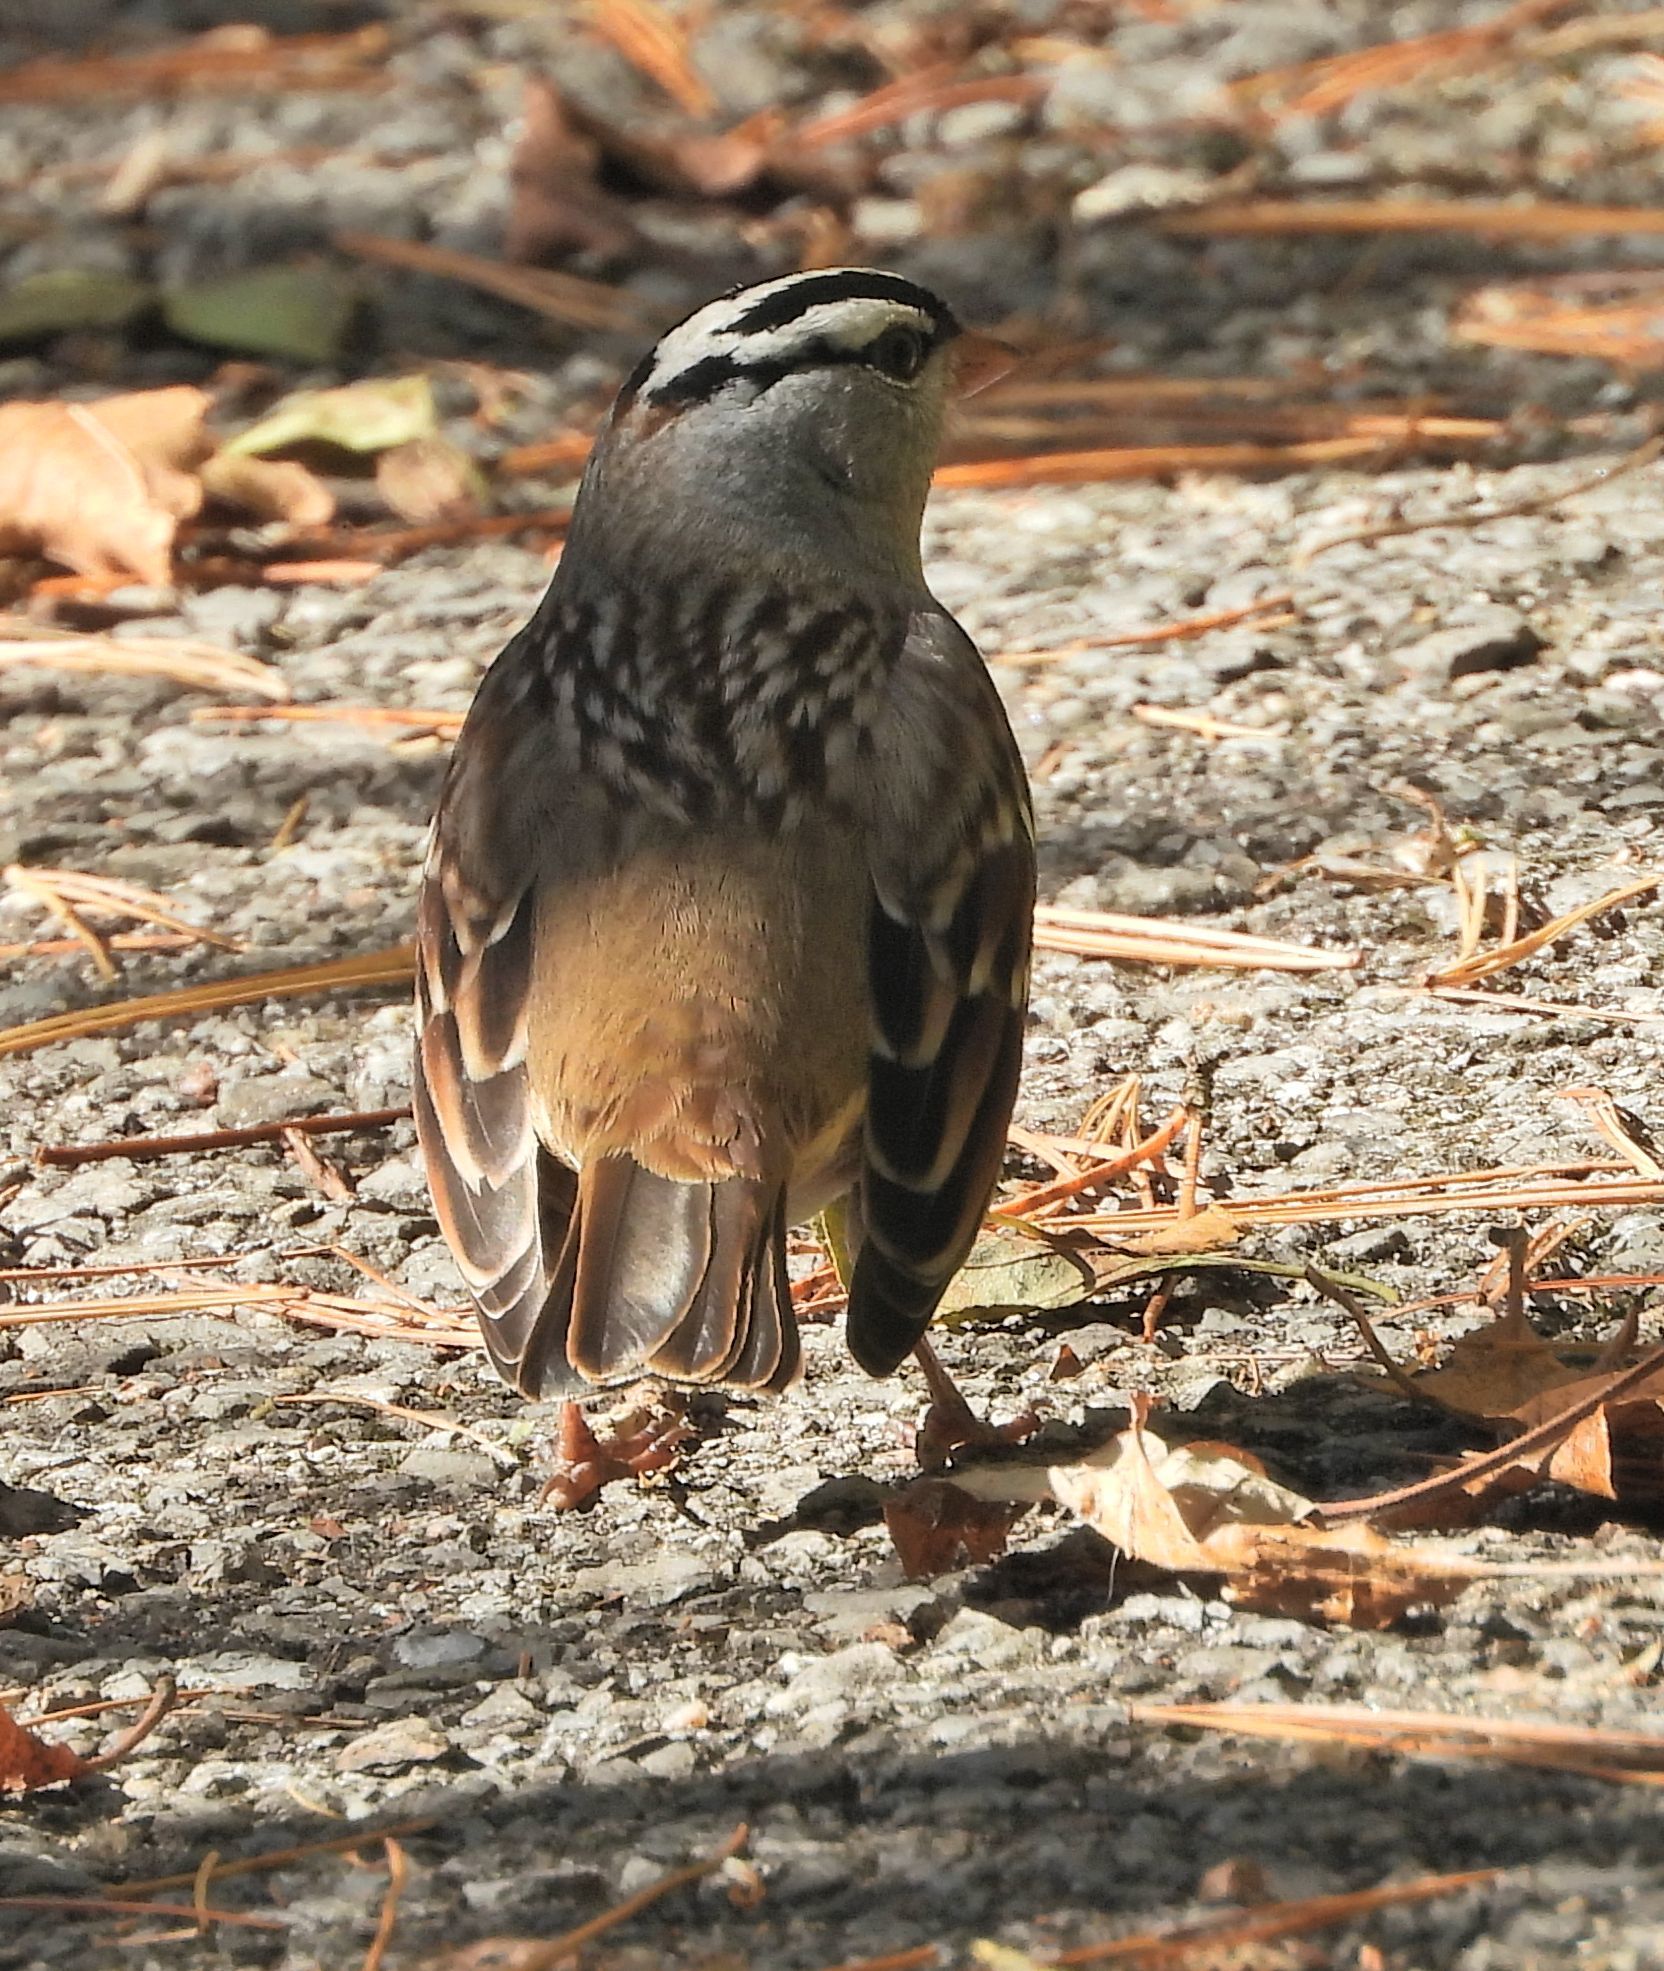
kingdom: Animalia
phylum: Chordata
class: Aves
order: Passeriformes
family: Passerellidae
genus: Zonotrichia
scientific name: Zonotrichia leucophrys
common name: White-crowned sparrow
